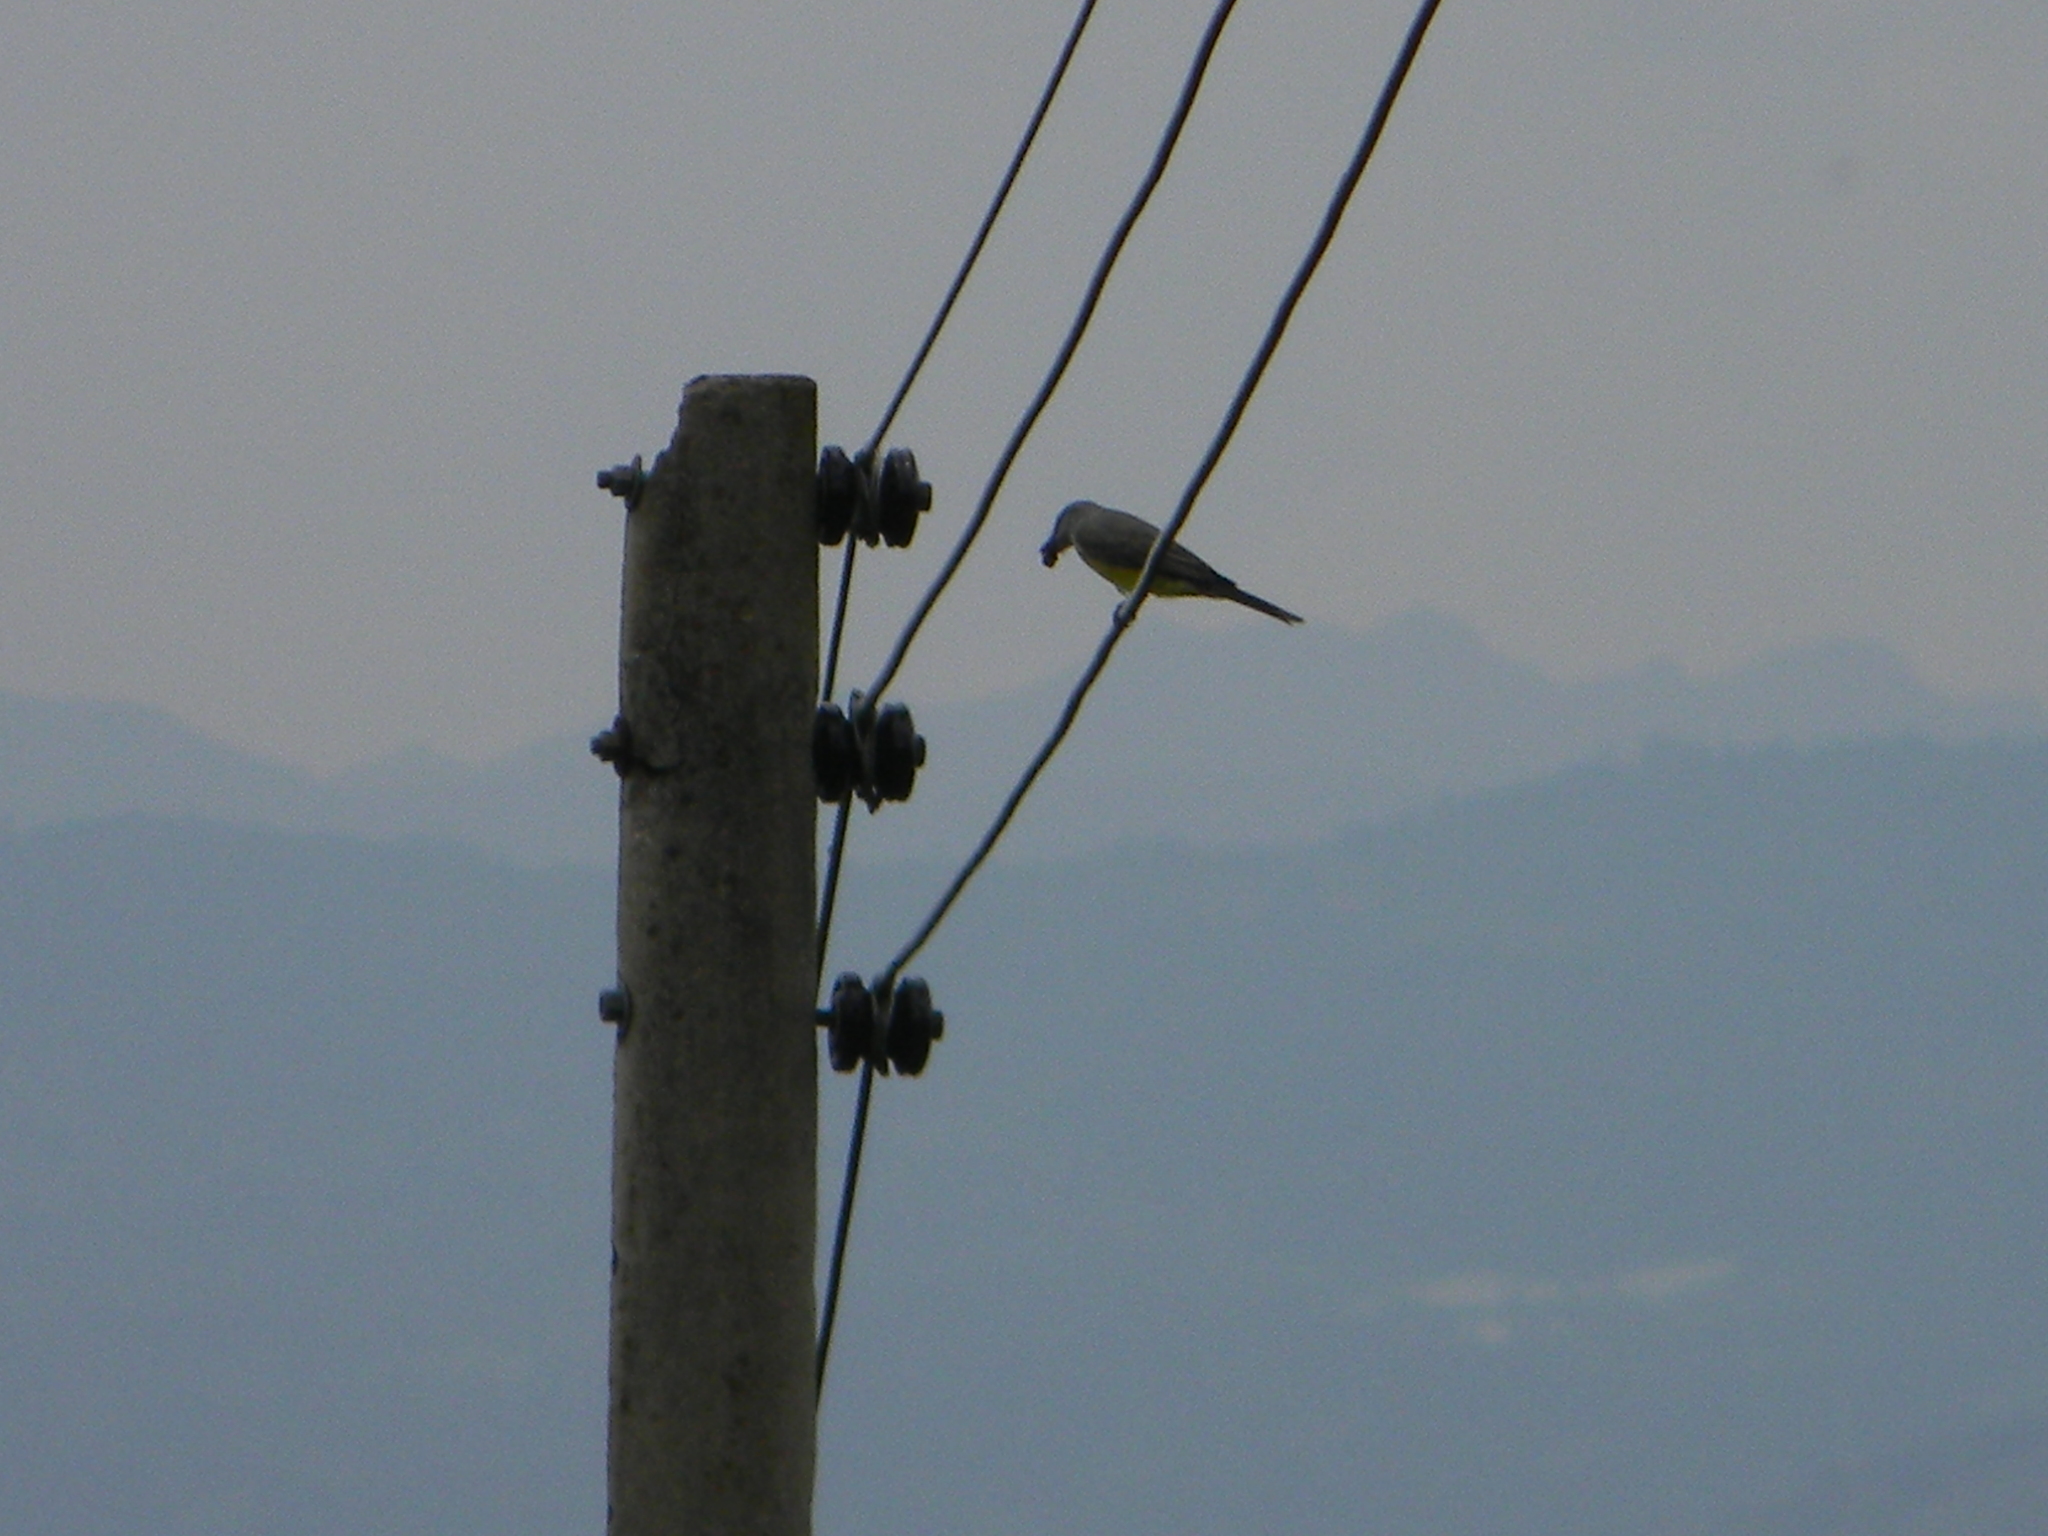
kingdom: Animalia
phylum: Chordata
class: Aves
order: Passeriformes
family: Tyrannidae
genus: Tyrannus
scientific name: Tyrannus melancholicus
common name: Tropical kingbird
